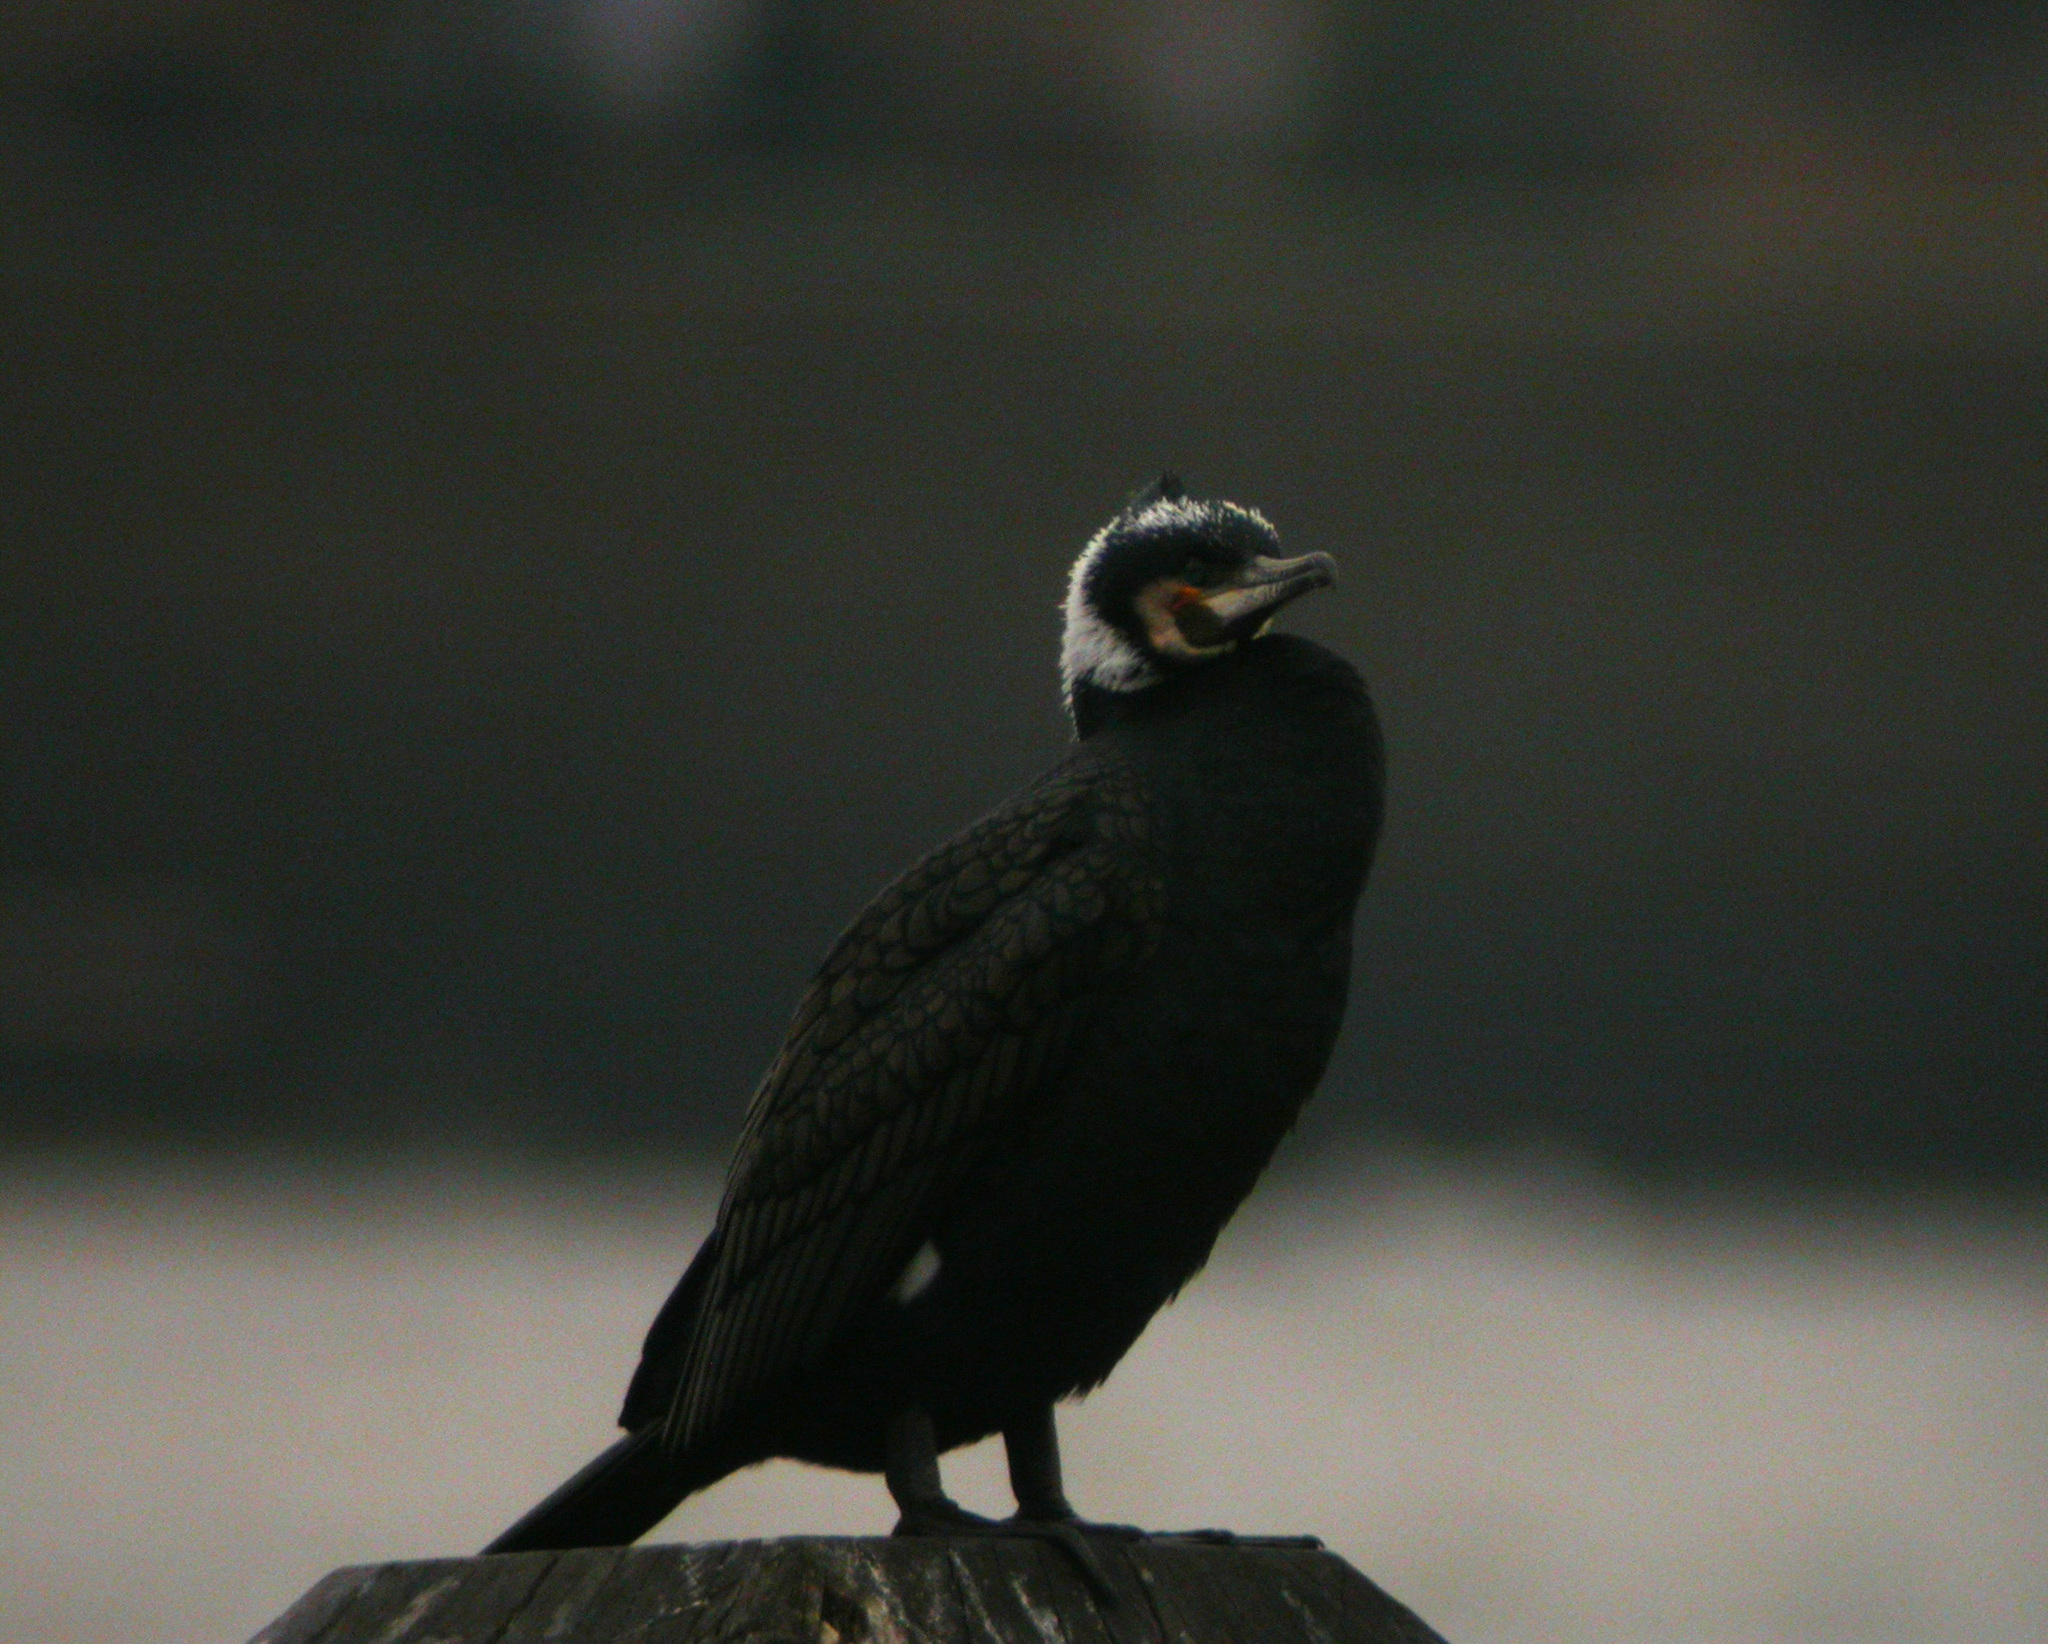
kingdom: Animalia
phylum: Chordata
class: Aves
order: Suliformes
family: Phalacrocoracidae
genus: Phalacrocorax
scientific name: Phalacrocorax carbo
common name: Great cormorant
